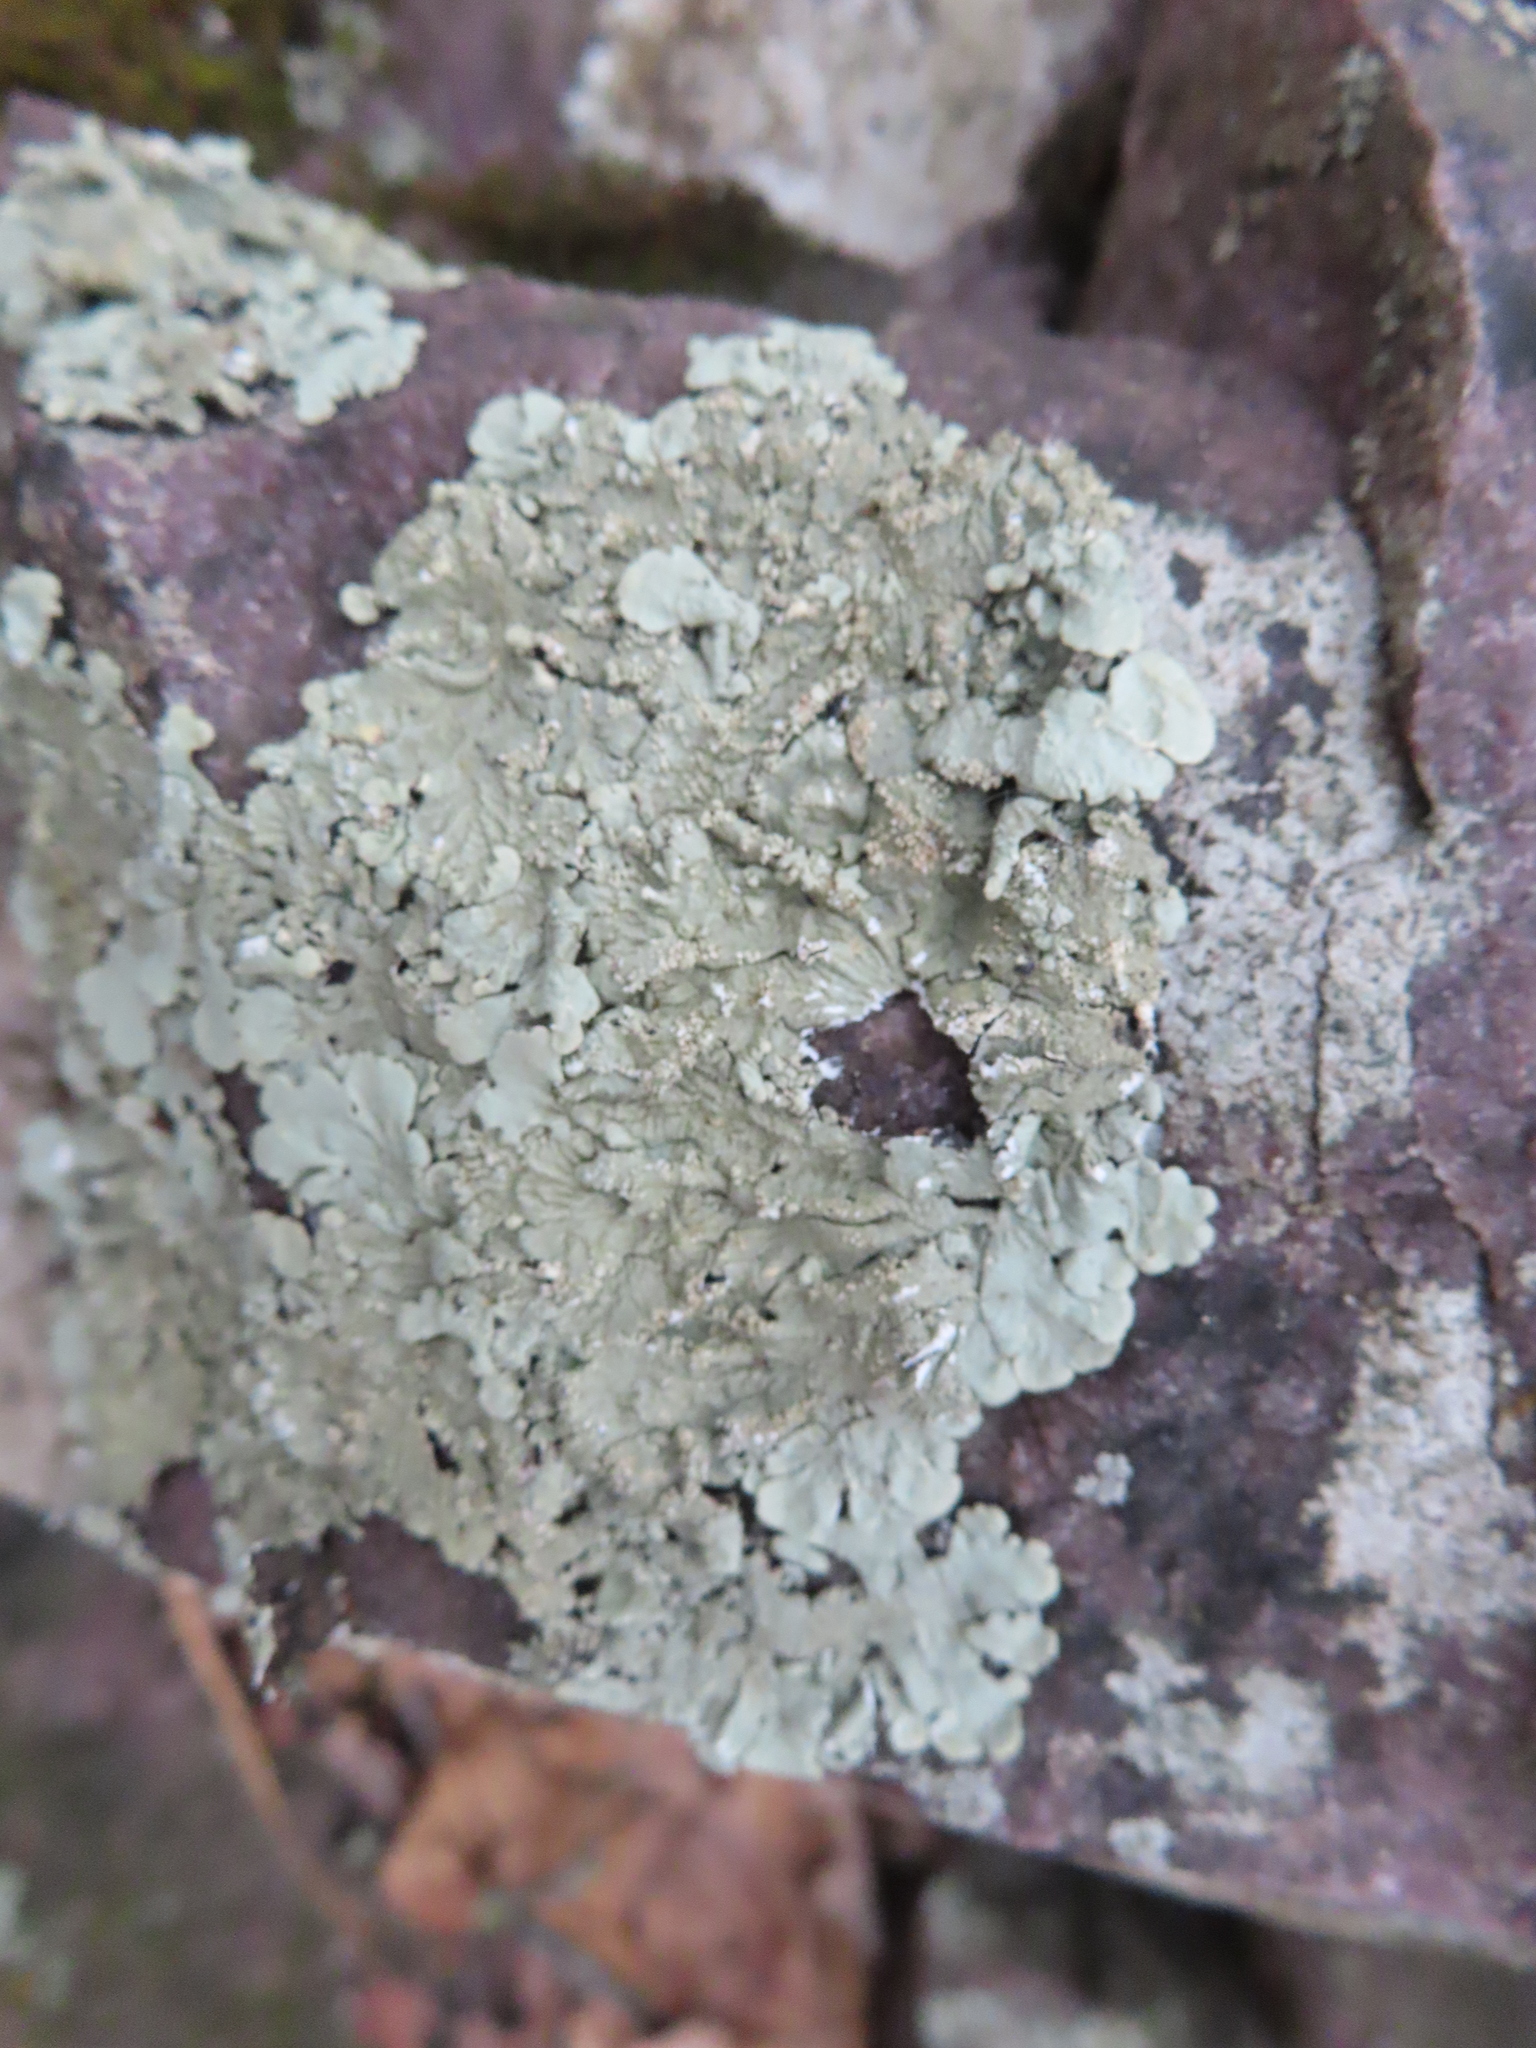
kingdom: Fungi
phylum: Ascomycota
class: Lecanoromycetes
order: Lecanorales
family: Parmeliaceae
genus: Flavoparmelia
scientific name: Flavoparmelia baltimorensis
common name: Rock greenshield
